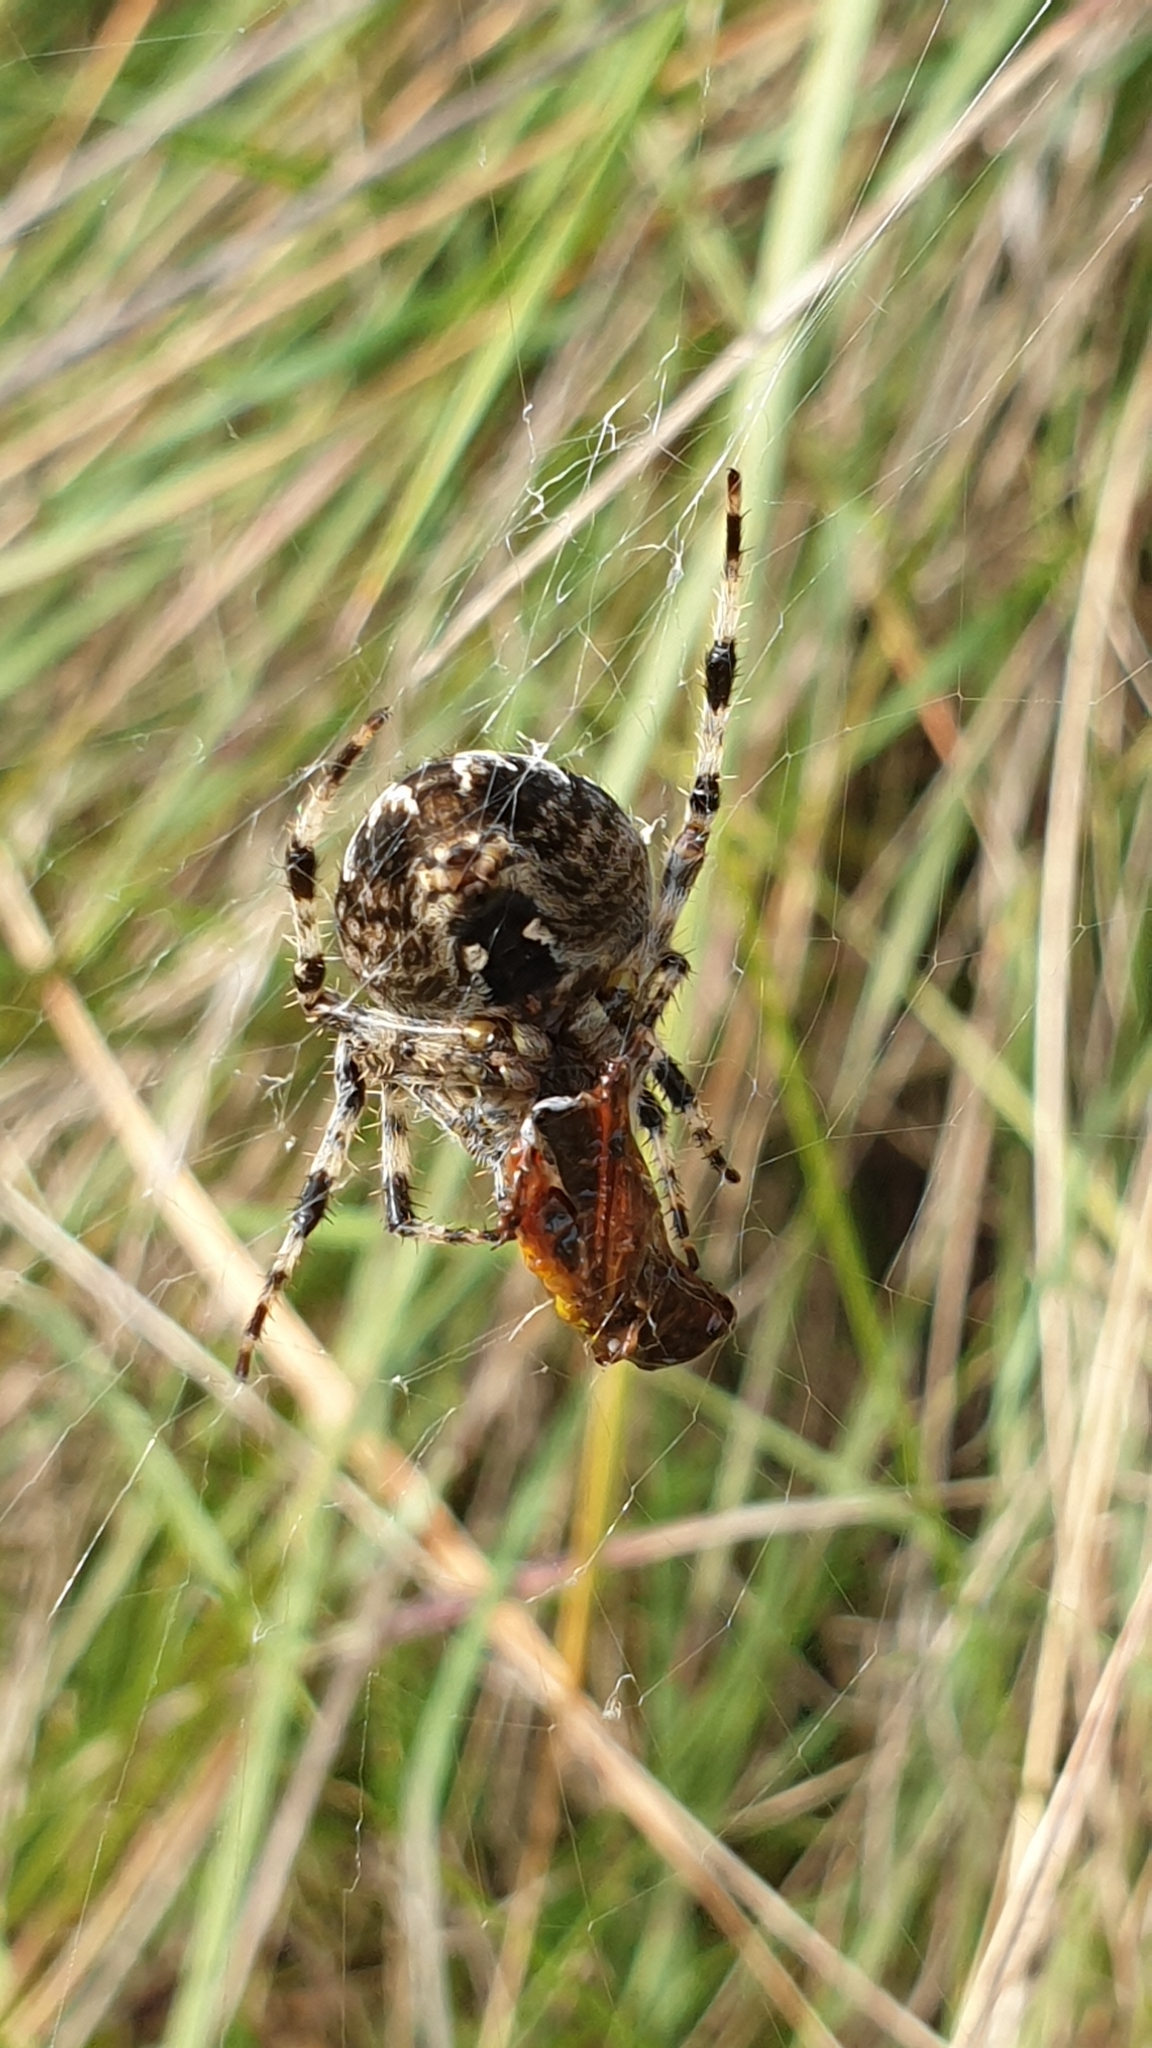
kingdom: Animalia
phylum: Arthropoda
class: Arachnida
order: Araneae
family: Araneidae
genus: Araneus
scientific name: Araneus diadematus
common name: Cross orbweaver
